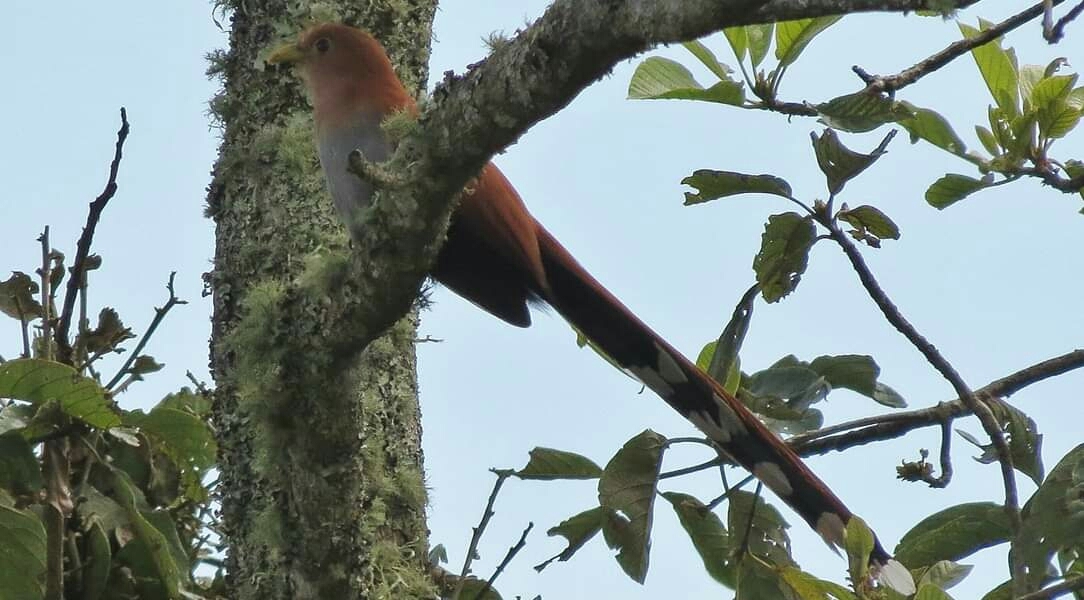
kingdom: Animalia
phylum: Chordata
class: Aves
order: Cuculiformes
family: Cuculidae
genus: Piaya
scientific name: Piaya cayana
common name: Squirrel cuckoo
